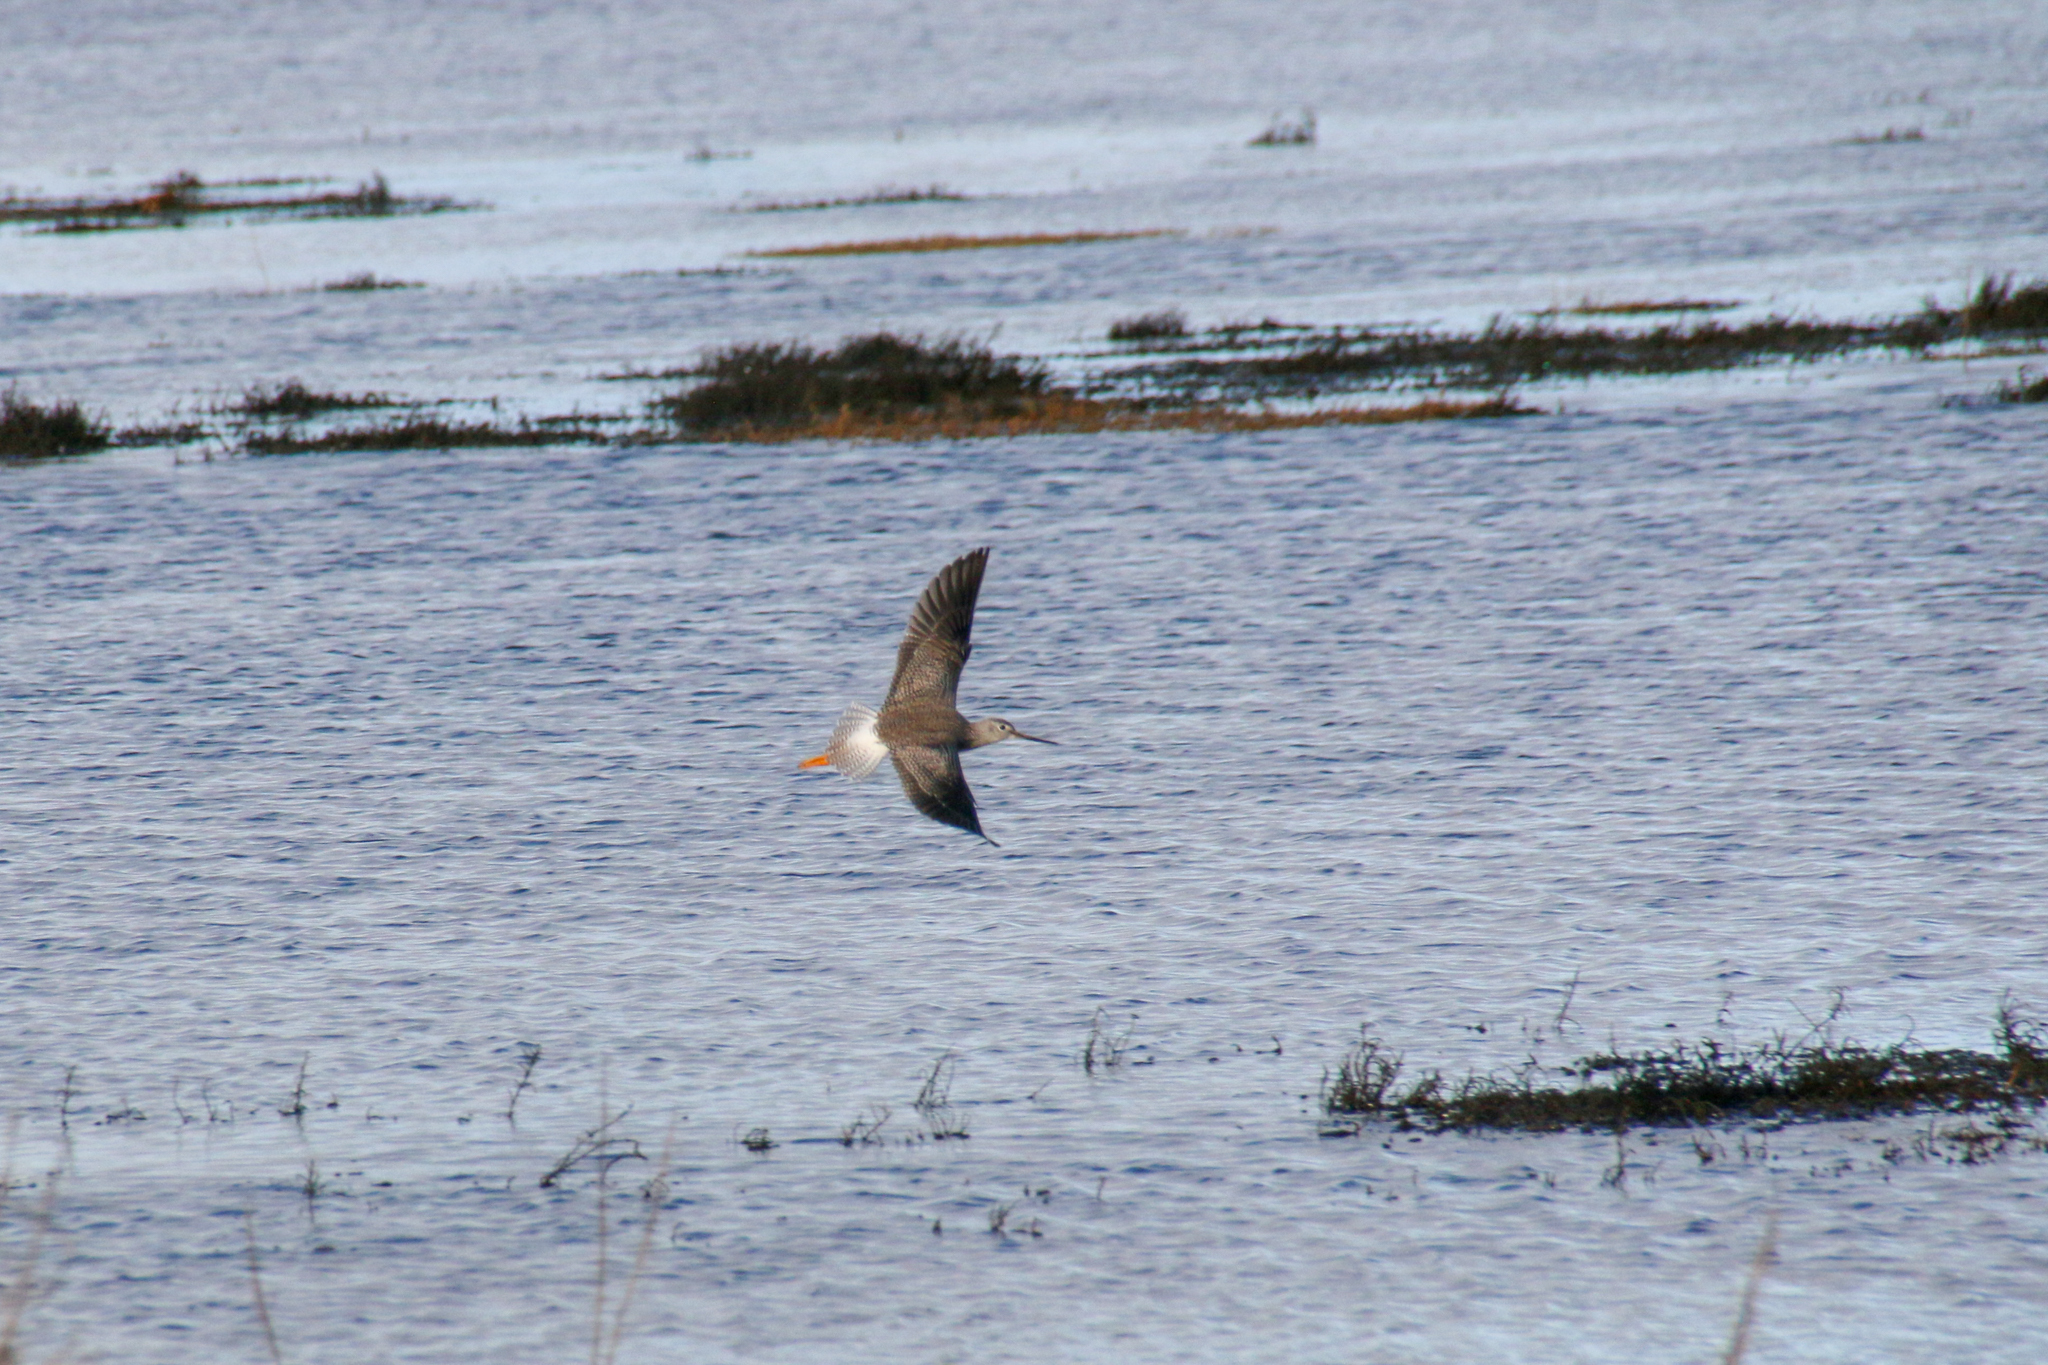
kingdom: Animalia
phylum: Chordata
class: Aves
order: Charadriiformes
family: Scolopacidae
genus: Tringa
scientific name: Tringa melanoleuca
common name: Greater yellowlegs
